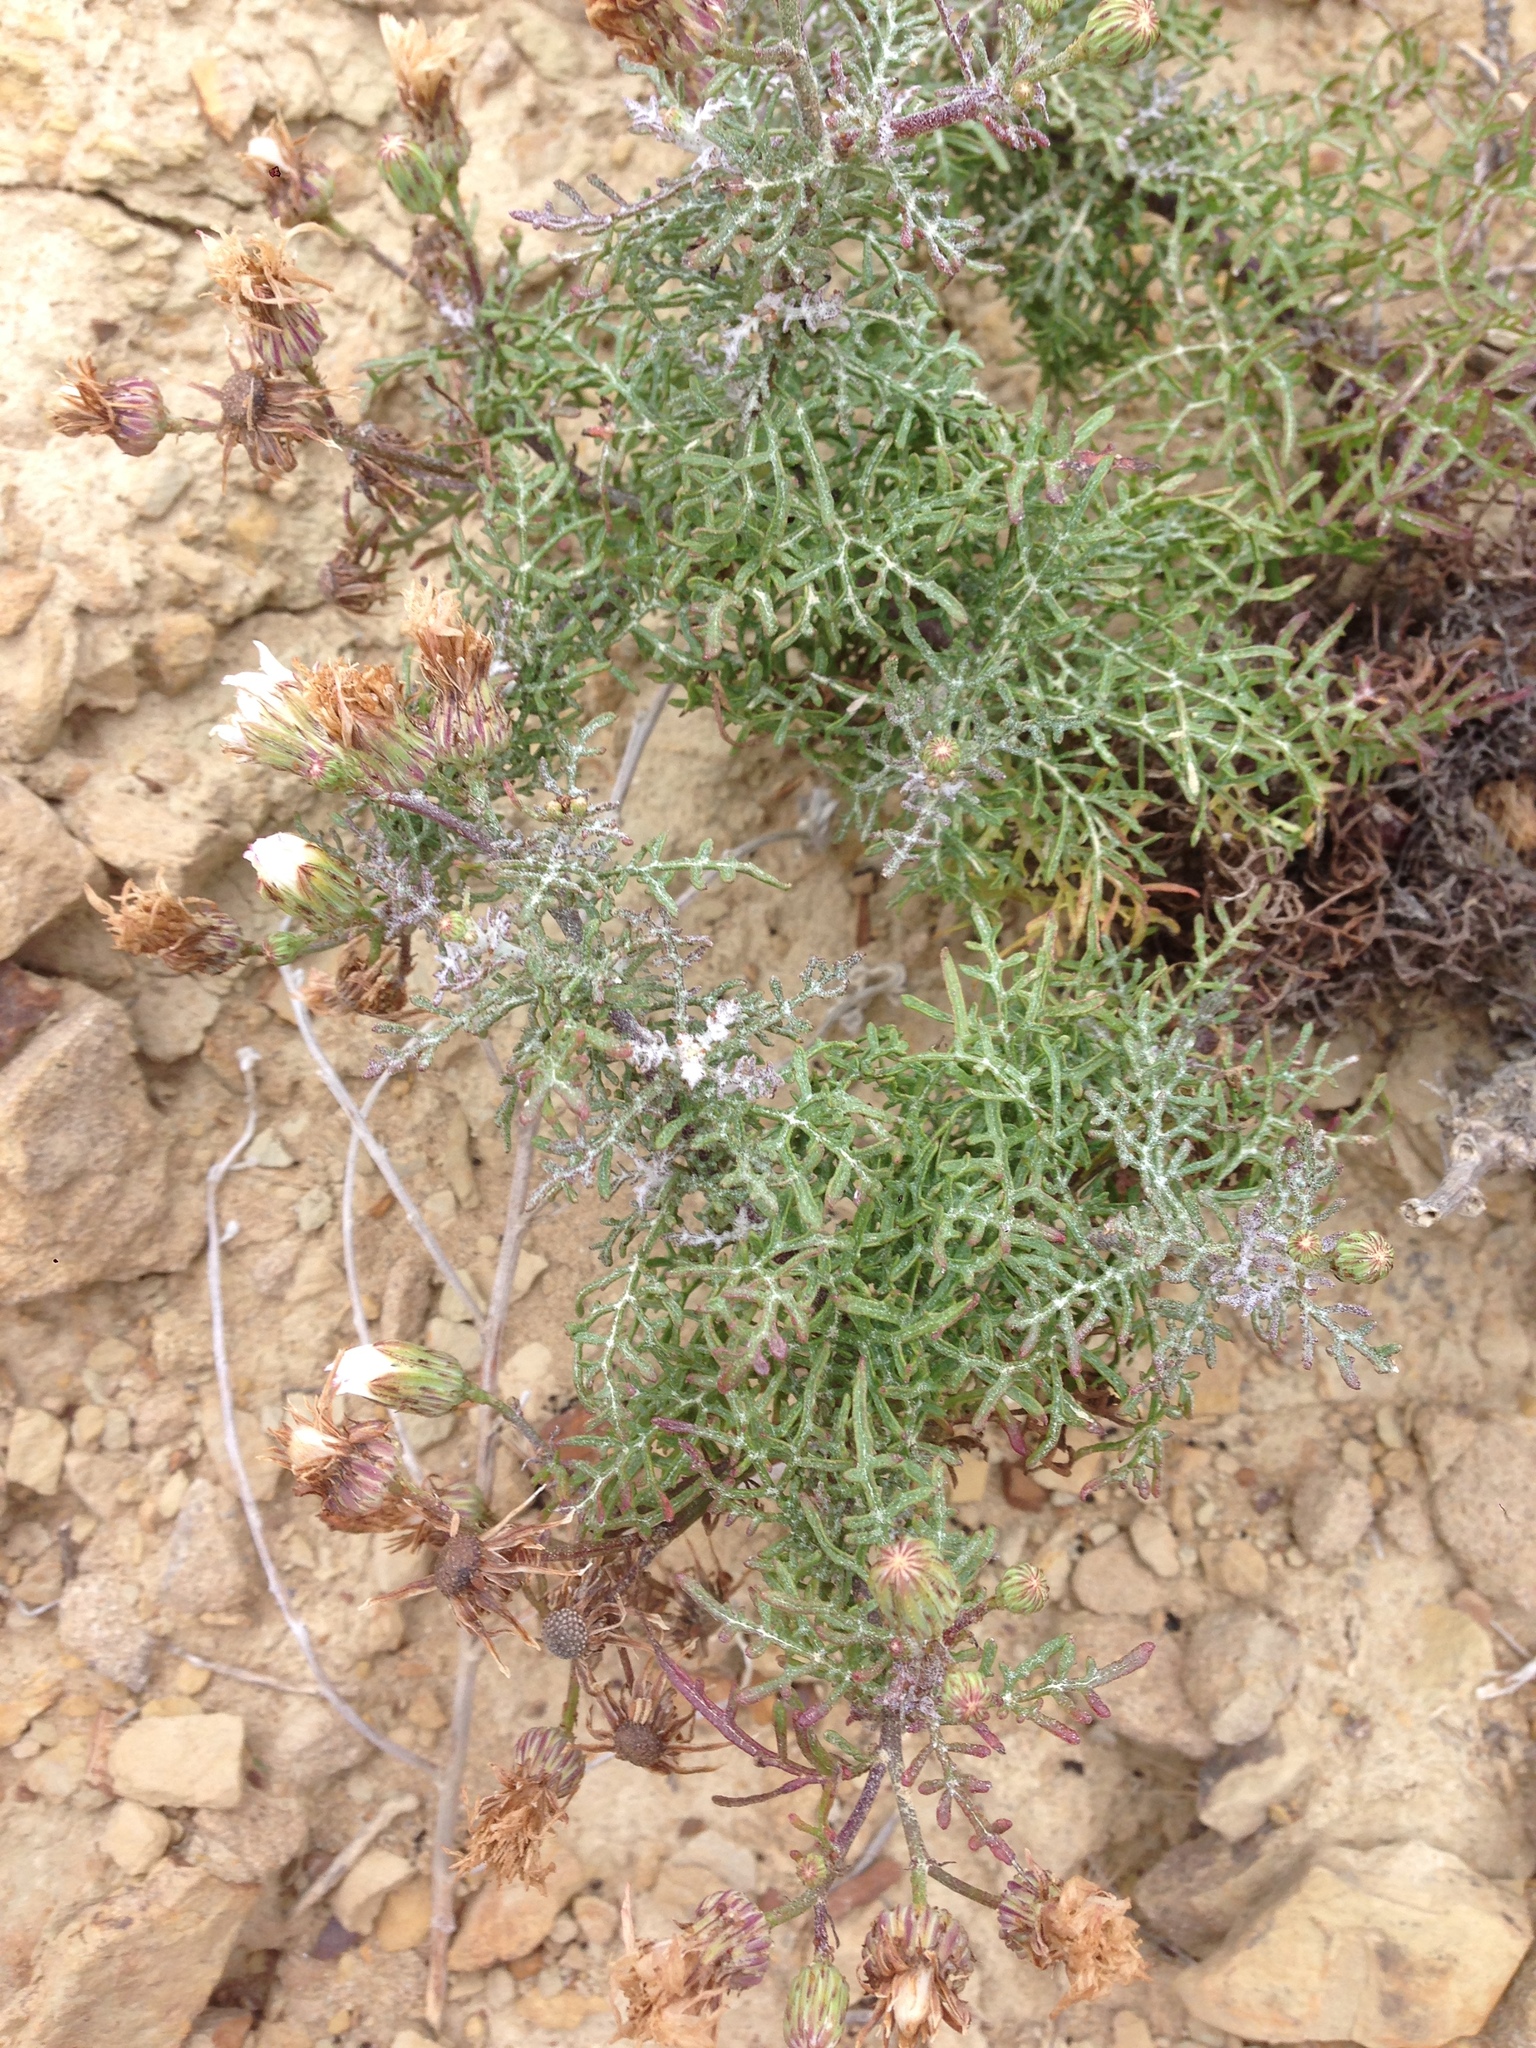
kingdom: Plantae
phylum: Tracheophyta
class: Magnoliopsida
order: Asterales
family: Asteraceae
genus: Malacothrix
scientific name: Malacothrix saxatilis
